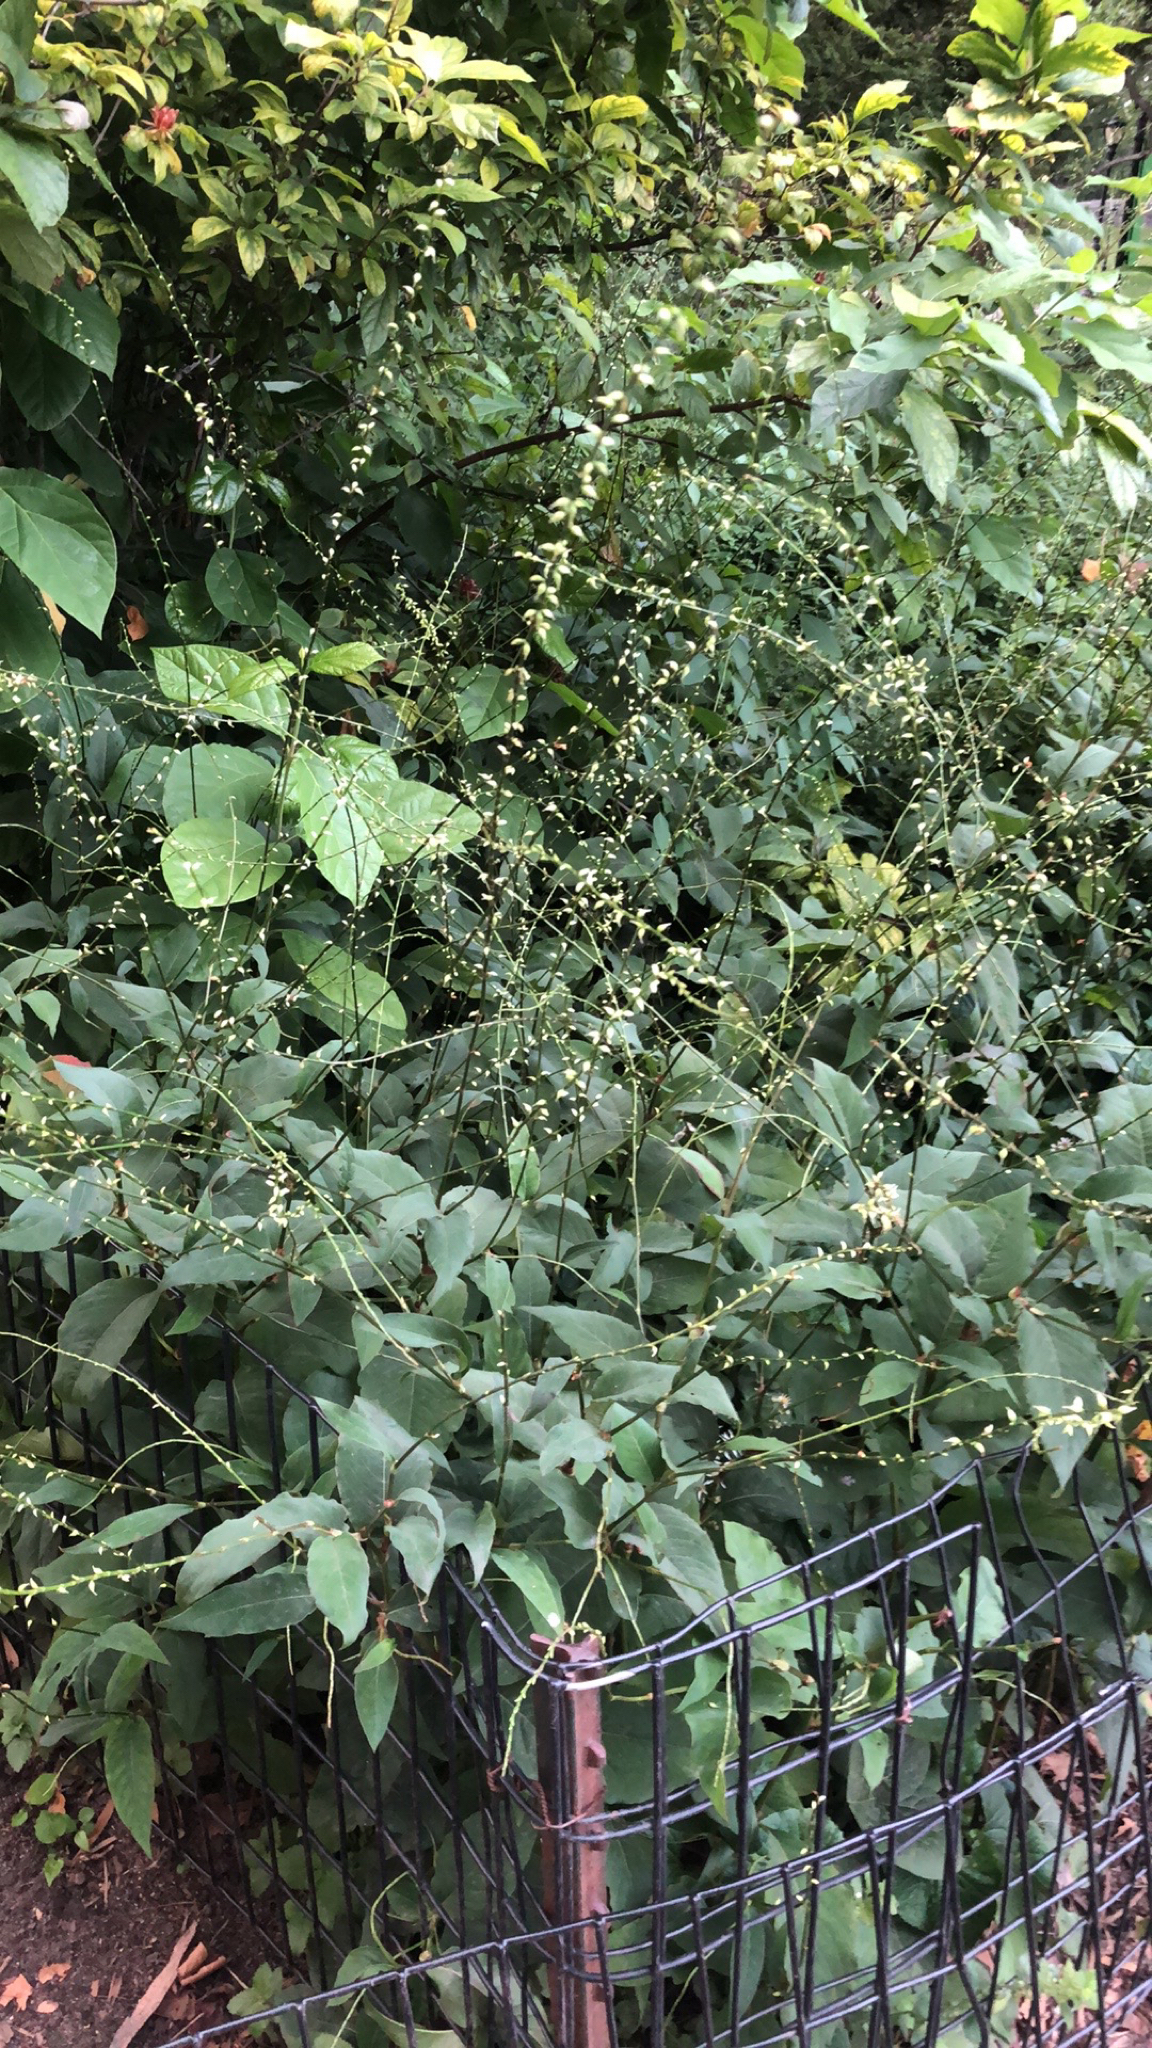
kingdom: Plantae
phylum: Tracheophyta
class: Magnoliopsida
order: Caryophyllales
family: Polygonaceae
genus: Persicaria
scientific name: Persicaria virginiana
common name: Jumpseed
